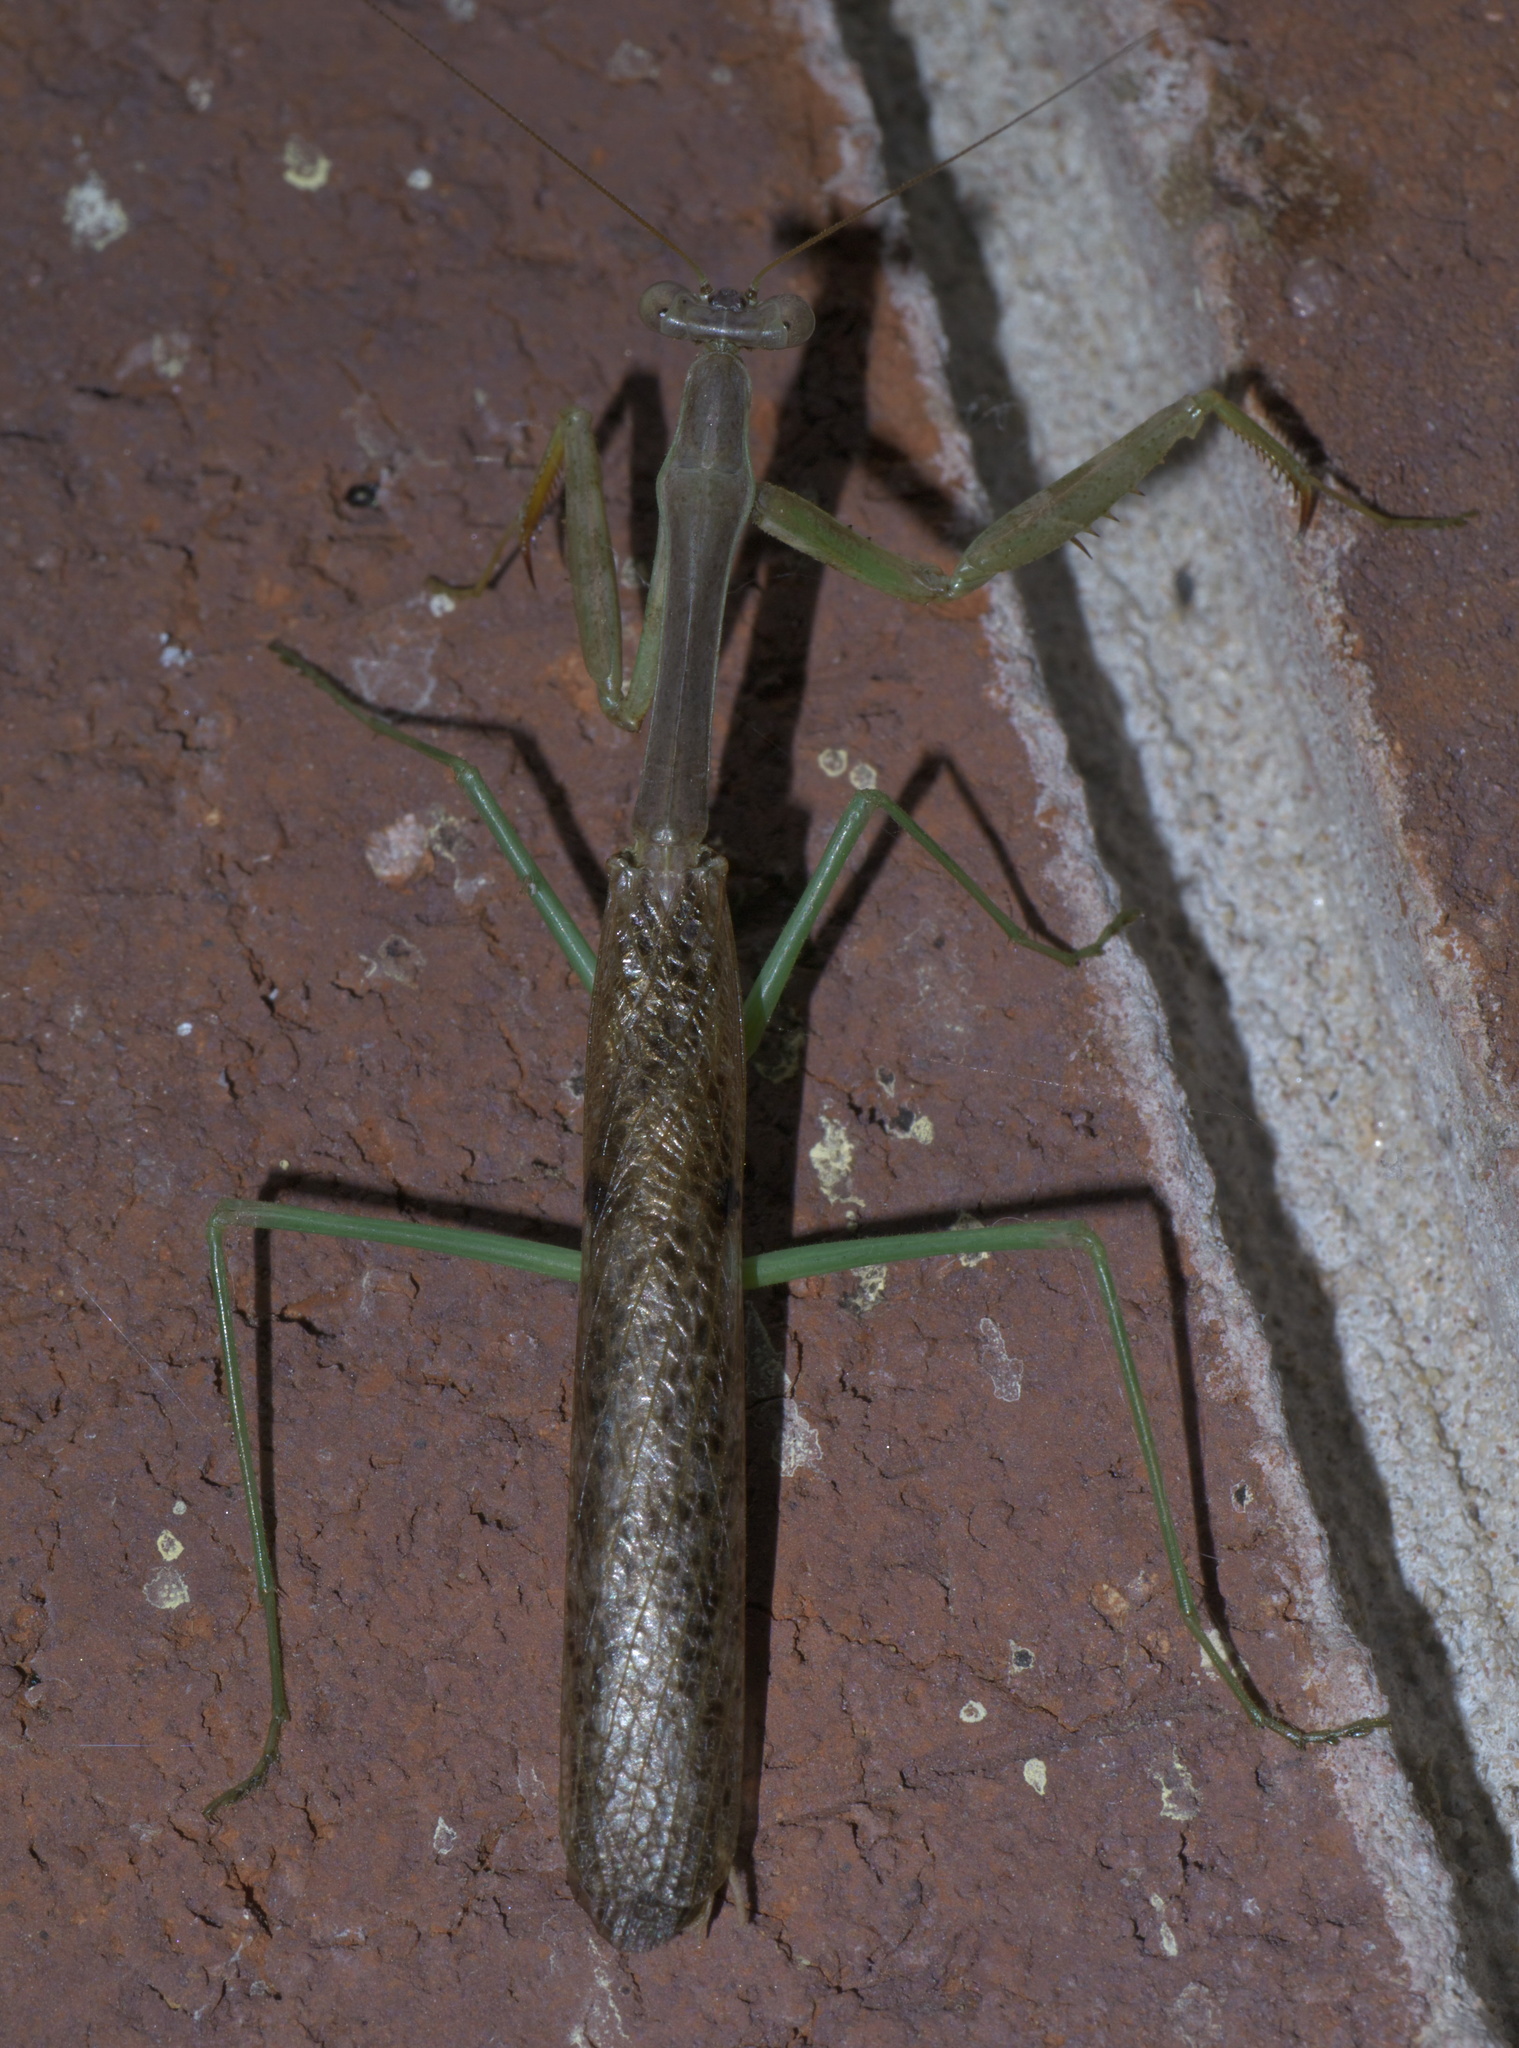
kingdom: Animalia
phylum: Arthropoda
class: Insecta
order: Mantodea
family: Mantidae
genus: Stagmomantis
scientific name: Stagmomantis carolina
